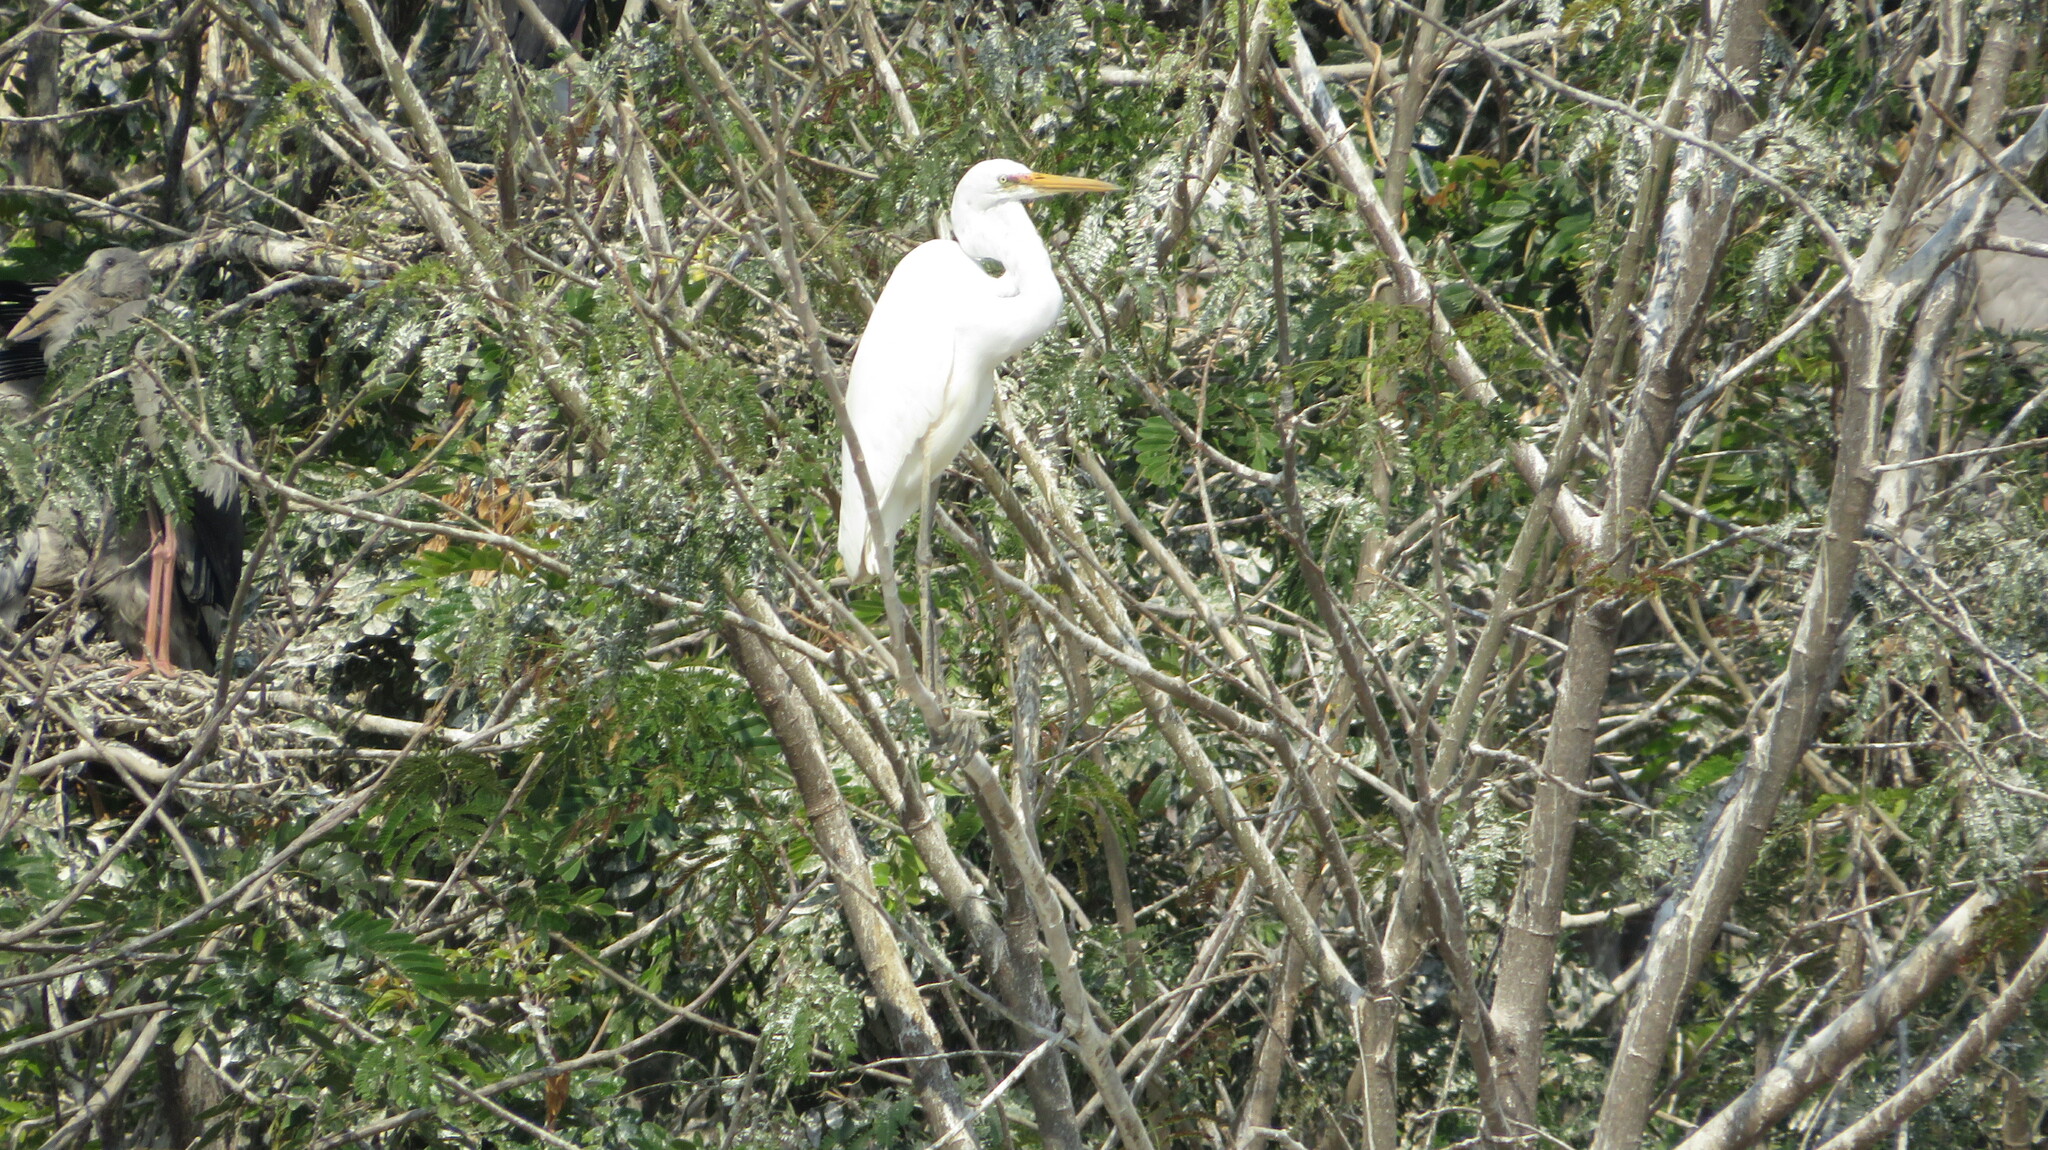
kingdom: Animalia
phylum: Chordata
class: Aves
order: Pelecaniformes
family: Ardeidae
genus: Ardea
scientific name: Ardea alba
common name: Great egret
